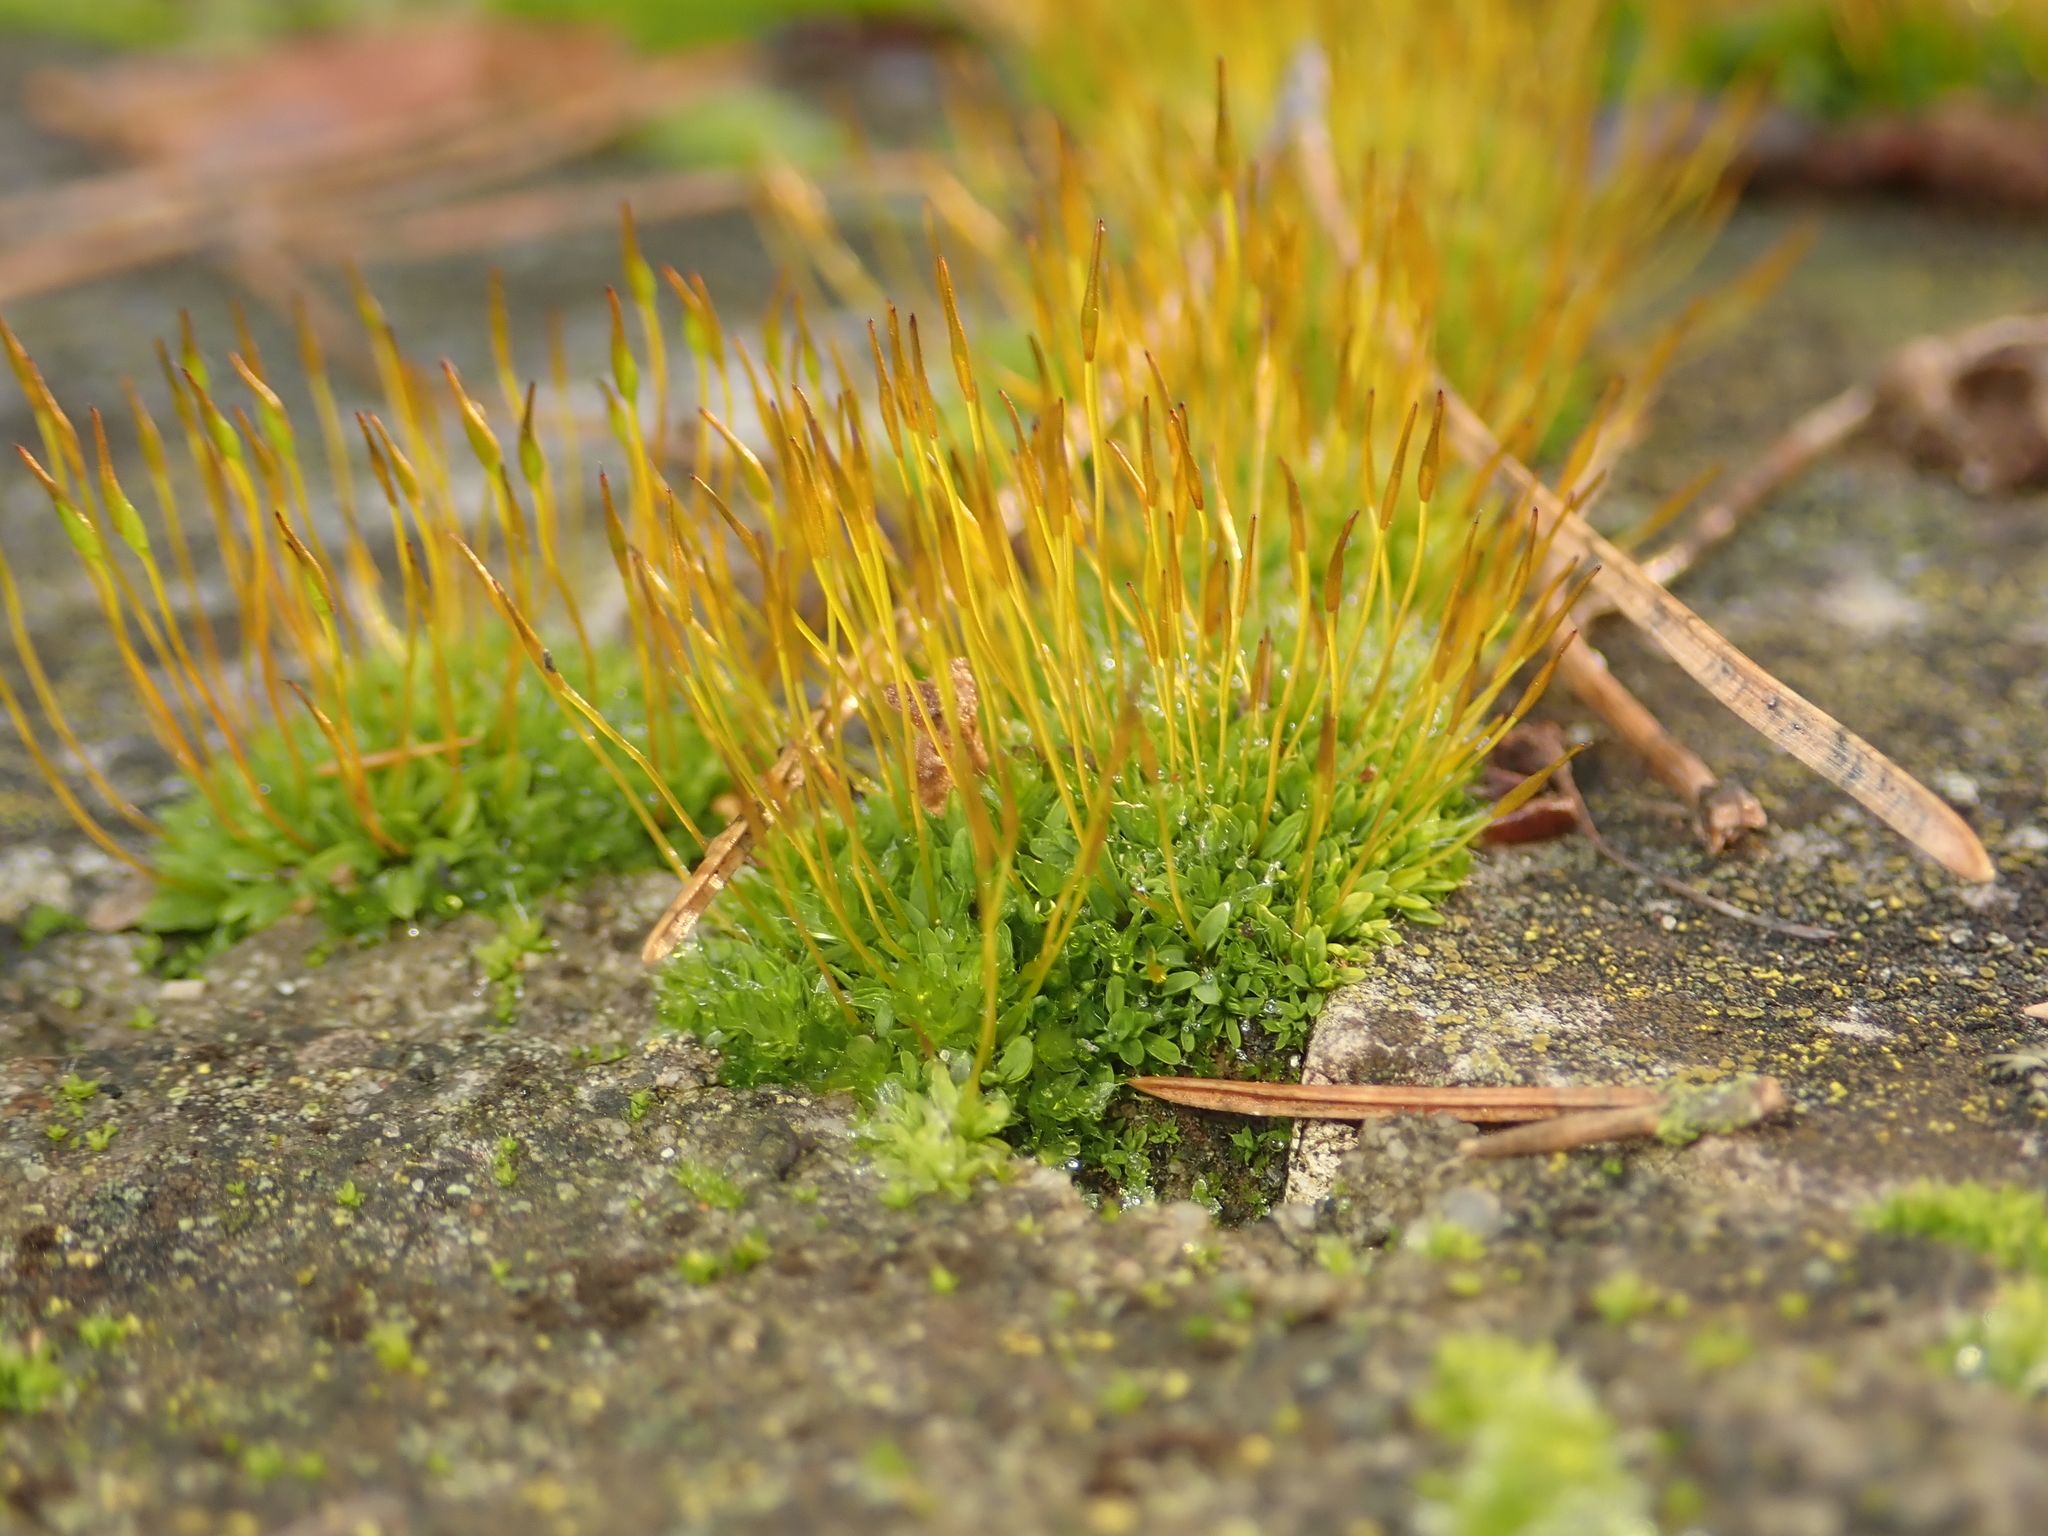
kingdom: Plantae
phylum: Bryophyta
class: Bryopsida
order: Pottiales
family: Pottiaceae
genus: Tortula
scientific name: Tortula muralis
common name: Wall screw-moss
